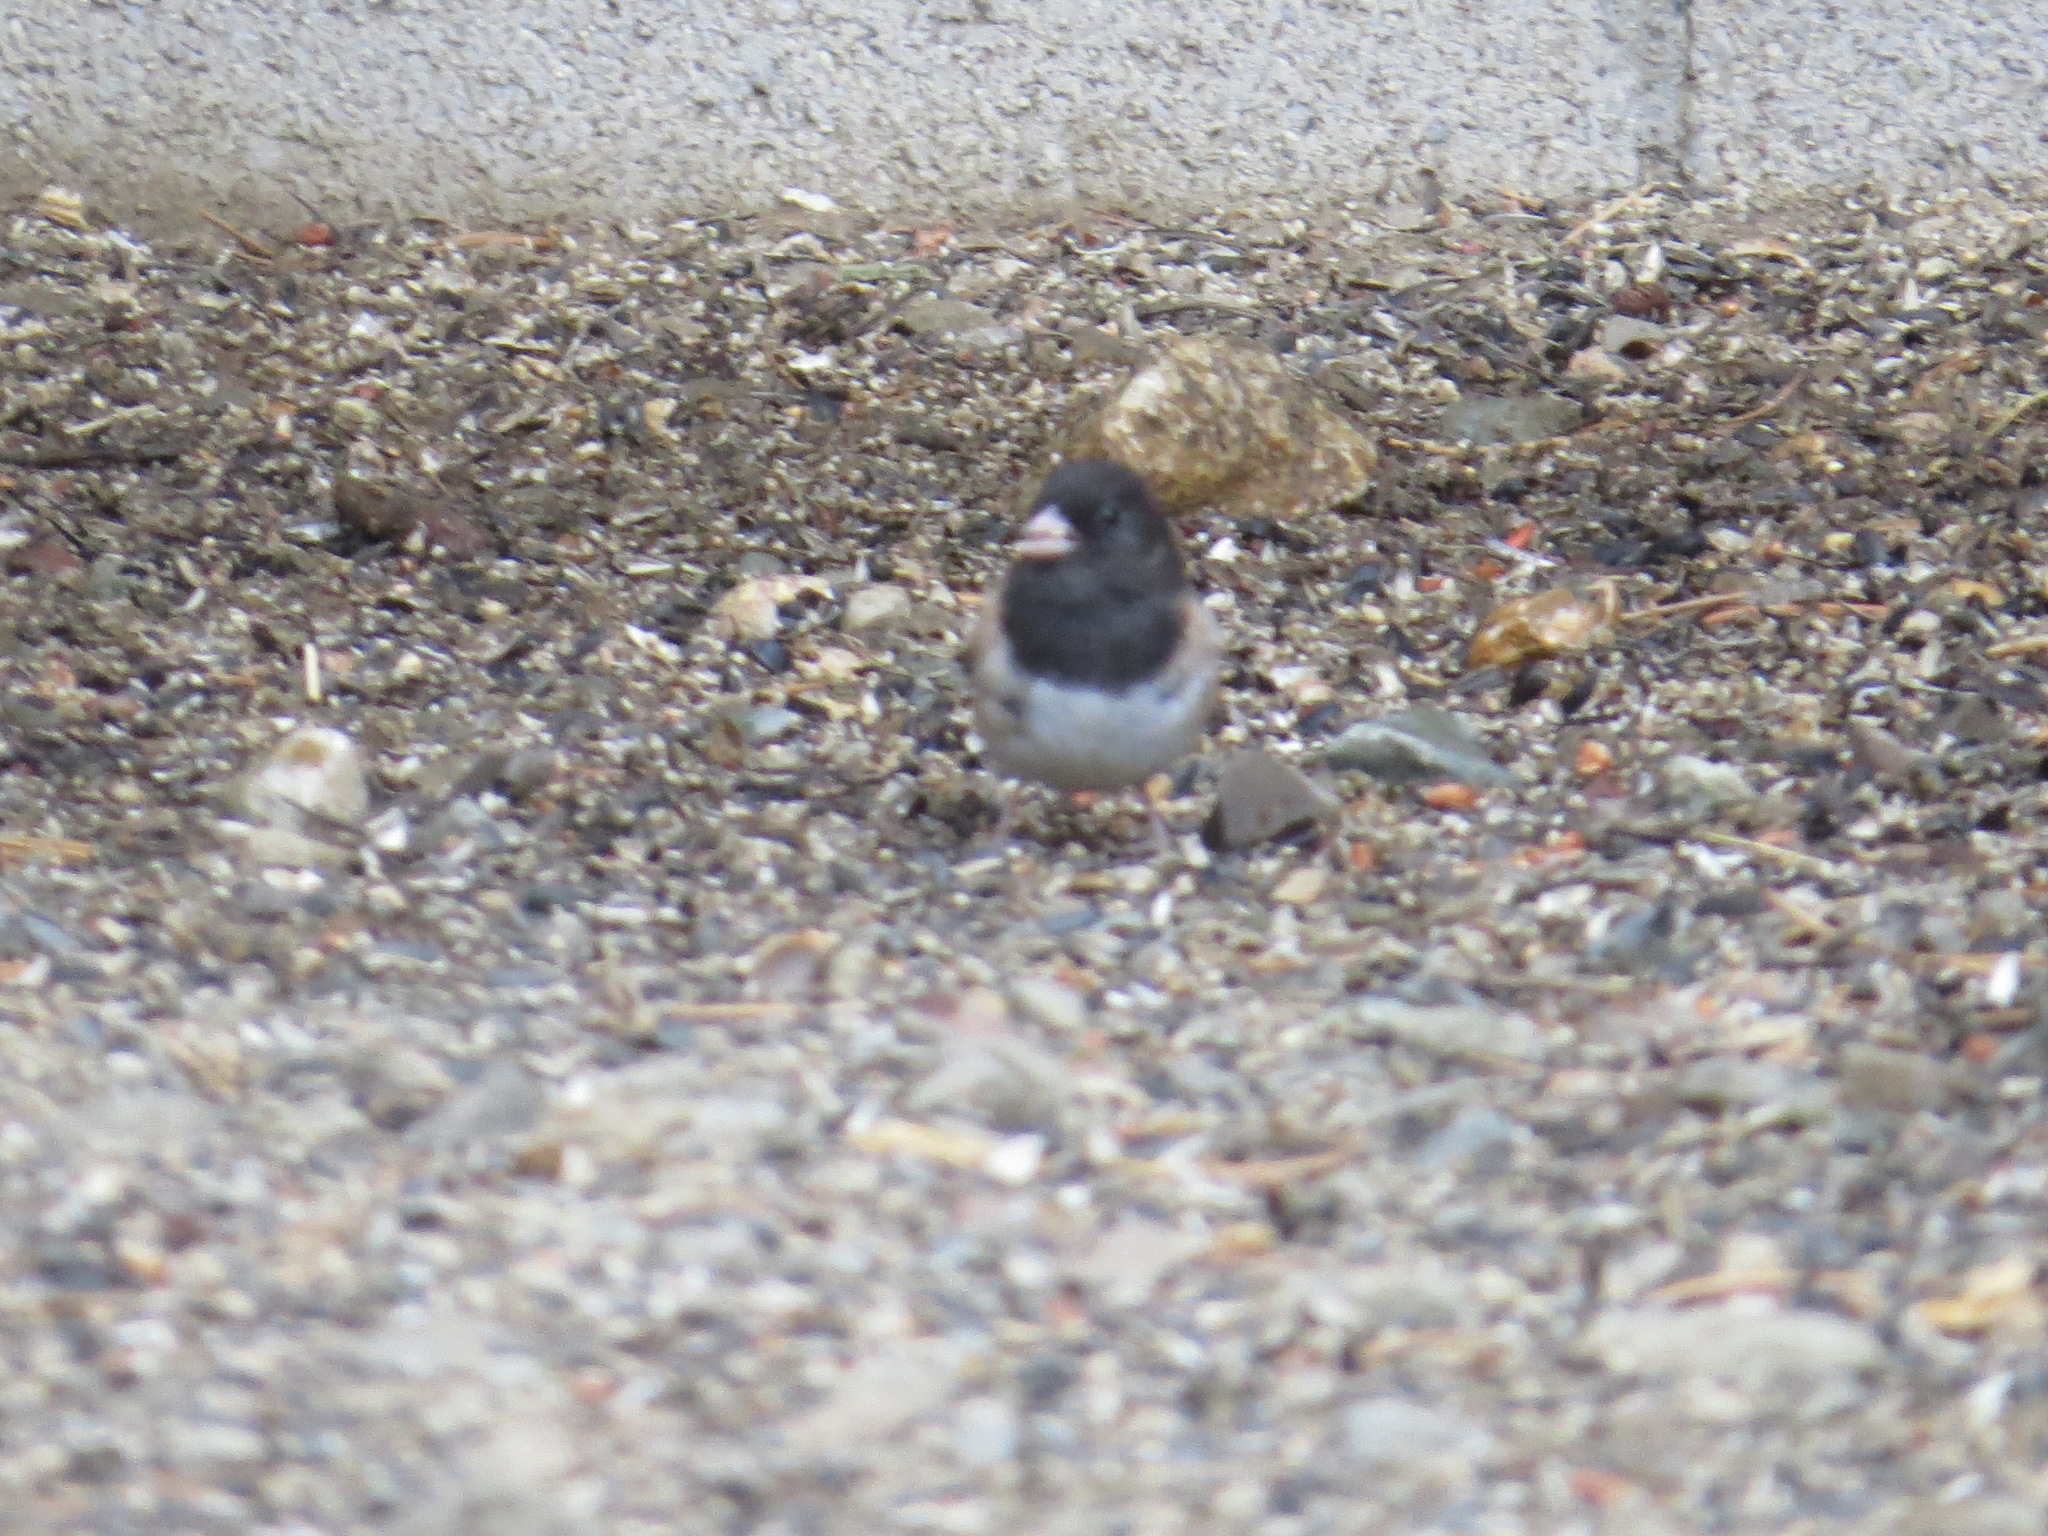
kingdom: Animalia
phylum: Chordata
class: Aves
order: Passeriformes
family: Passerellidae
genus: Junco
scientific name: Junco hyemalis
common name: Dark-eyed junco
